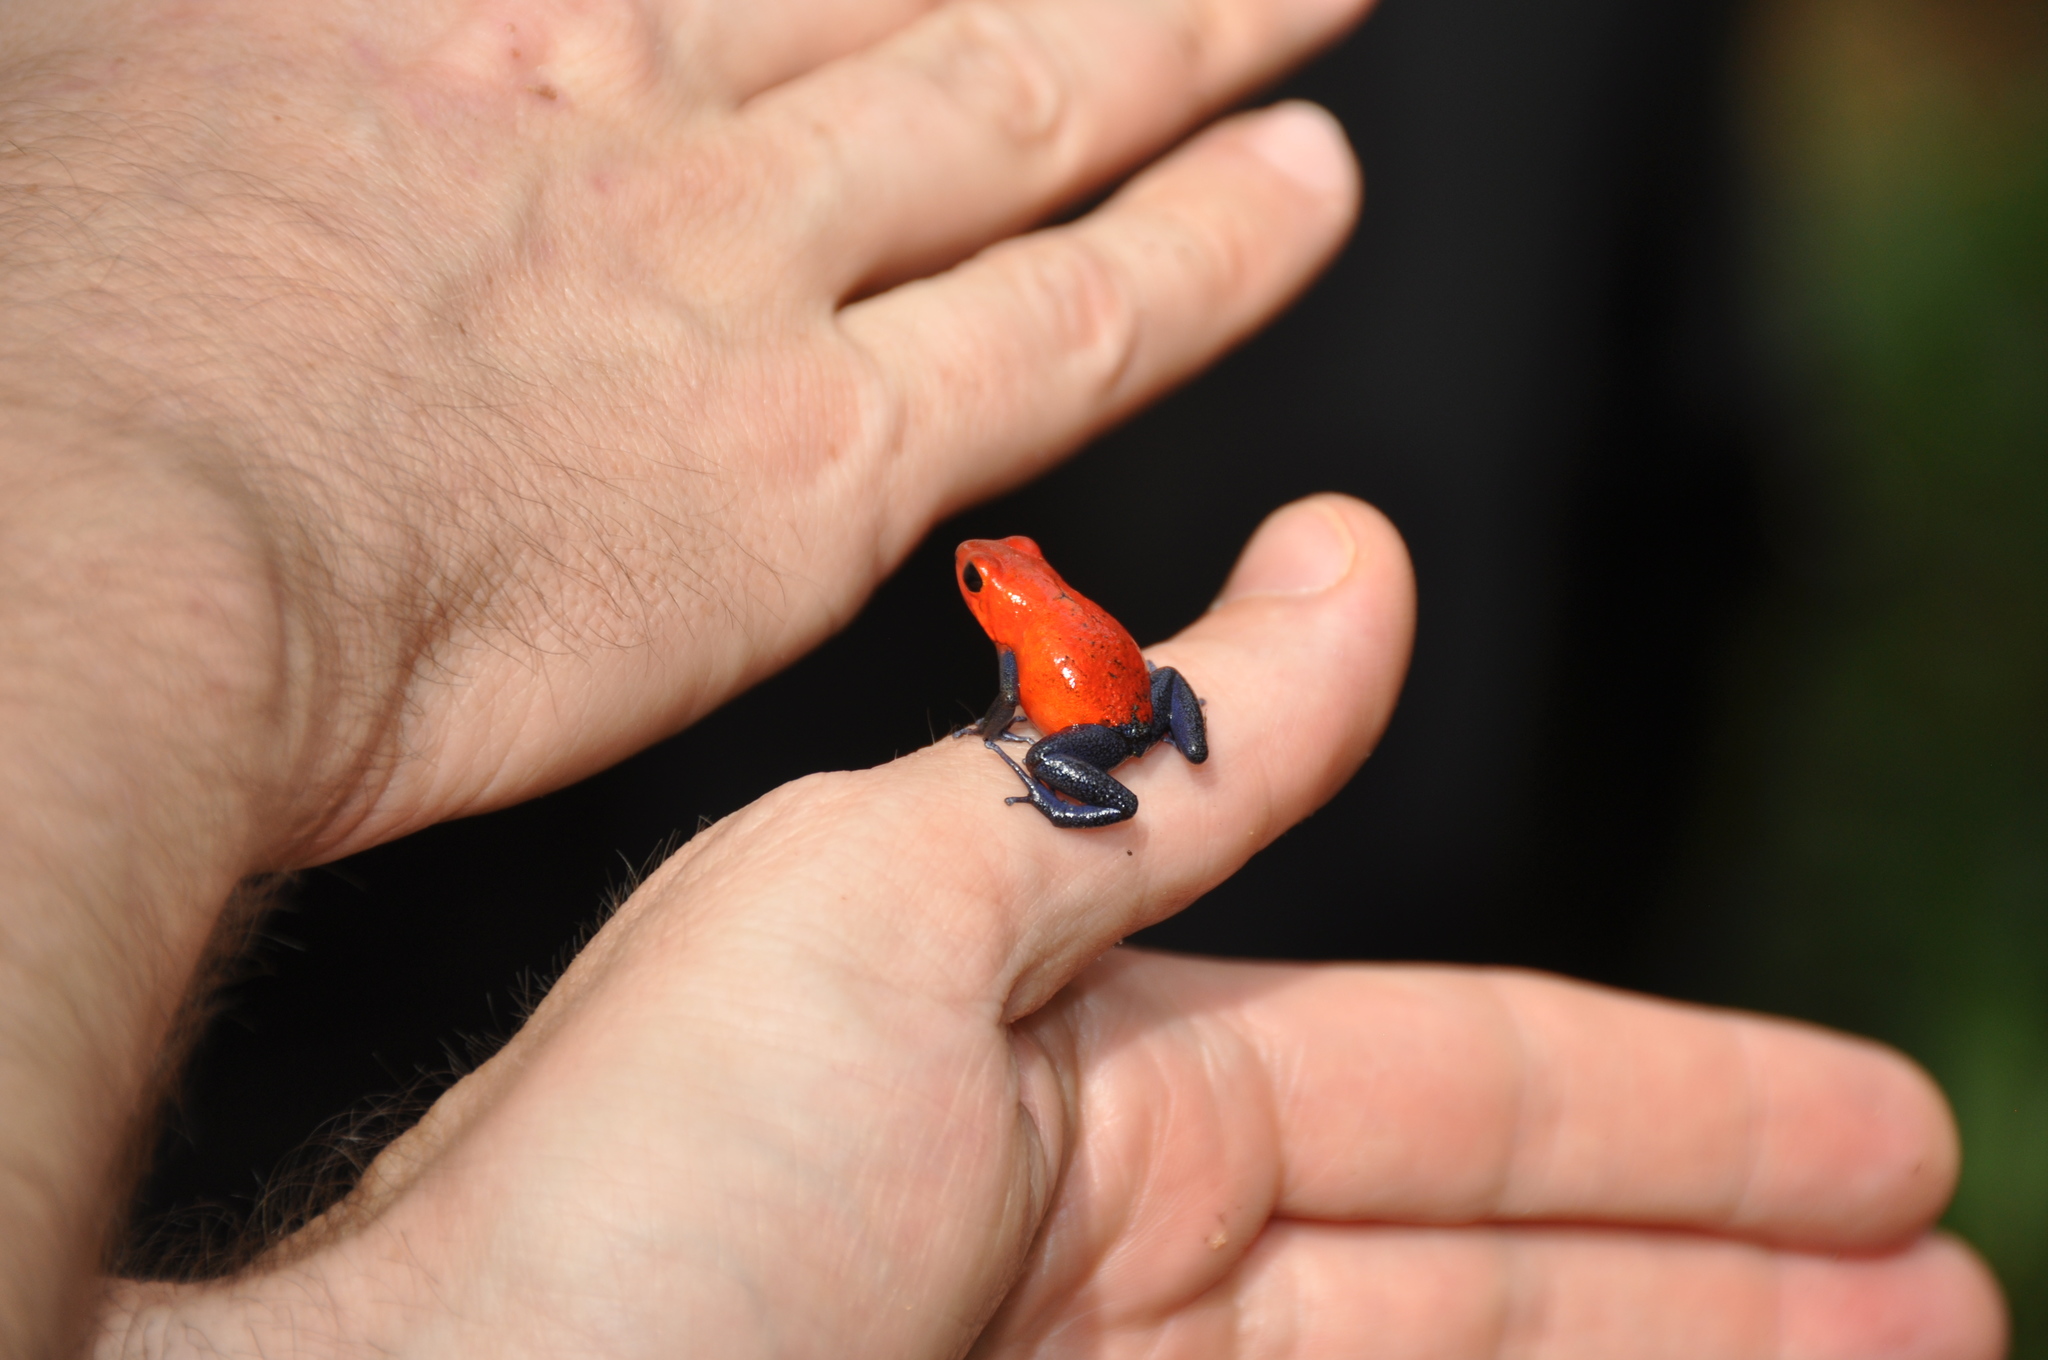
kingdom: Animalia
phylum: Chordata
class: Amphibia
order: Anura
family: Dendrobatidae
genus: Oophaga
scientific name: Oophaga pumilio
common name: Flaming poison frog
